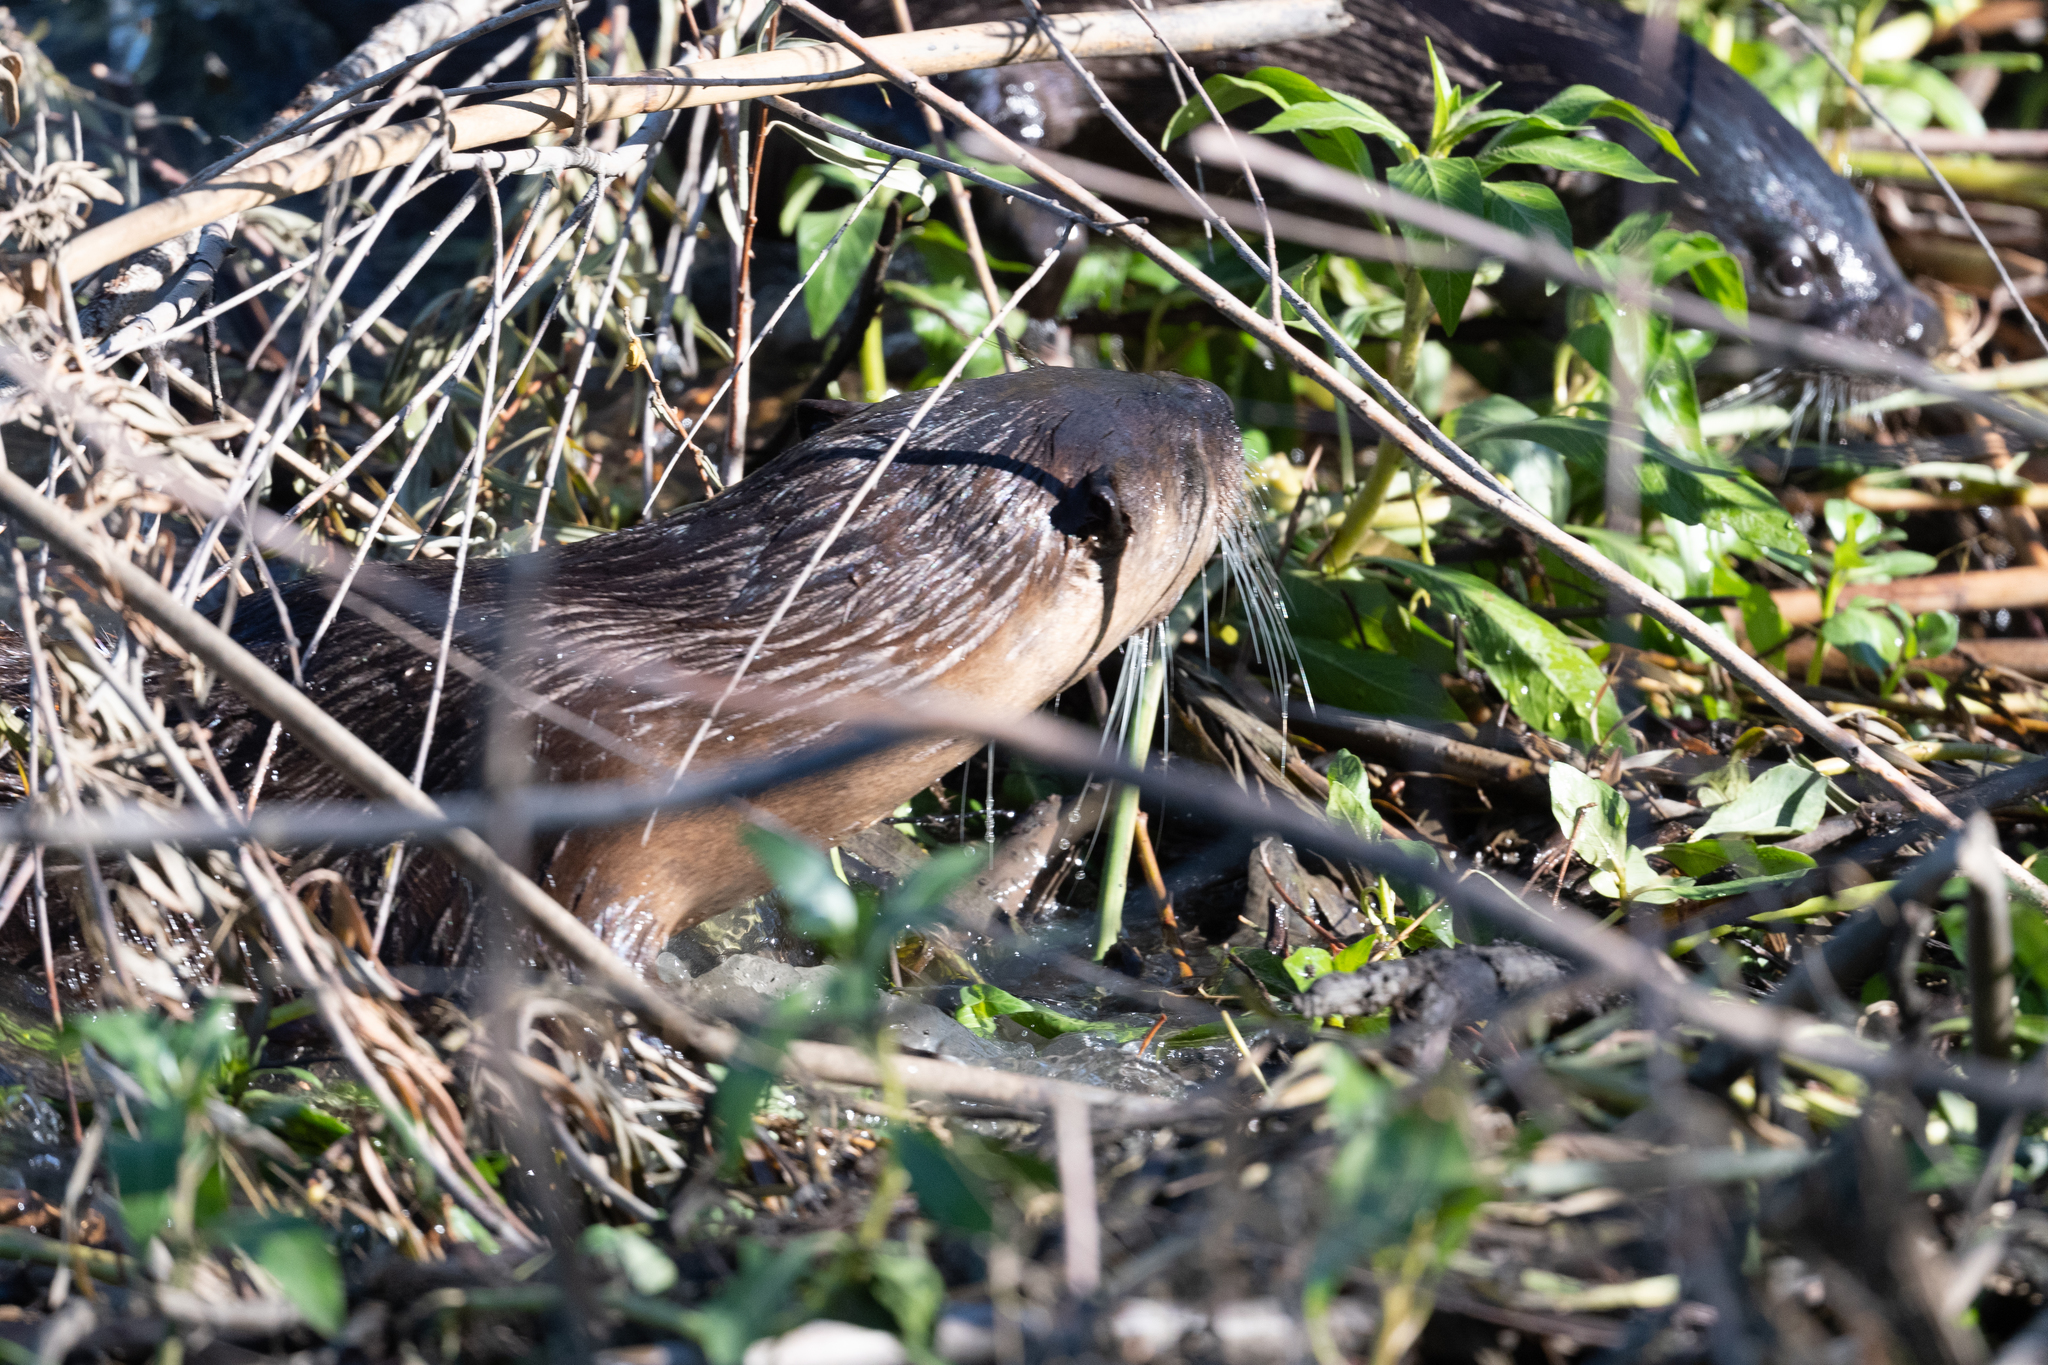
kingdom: Animalia
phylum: Chordata
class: Mammalia
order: Carnivora
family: Mustelidae
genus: Lontra
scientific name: Lontra canadensis
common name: North american river otter
